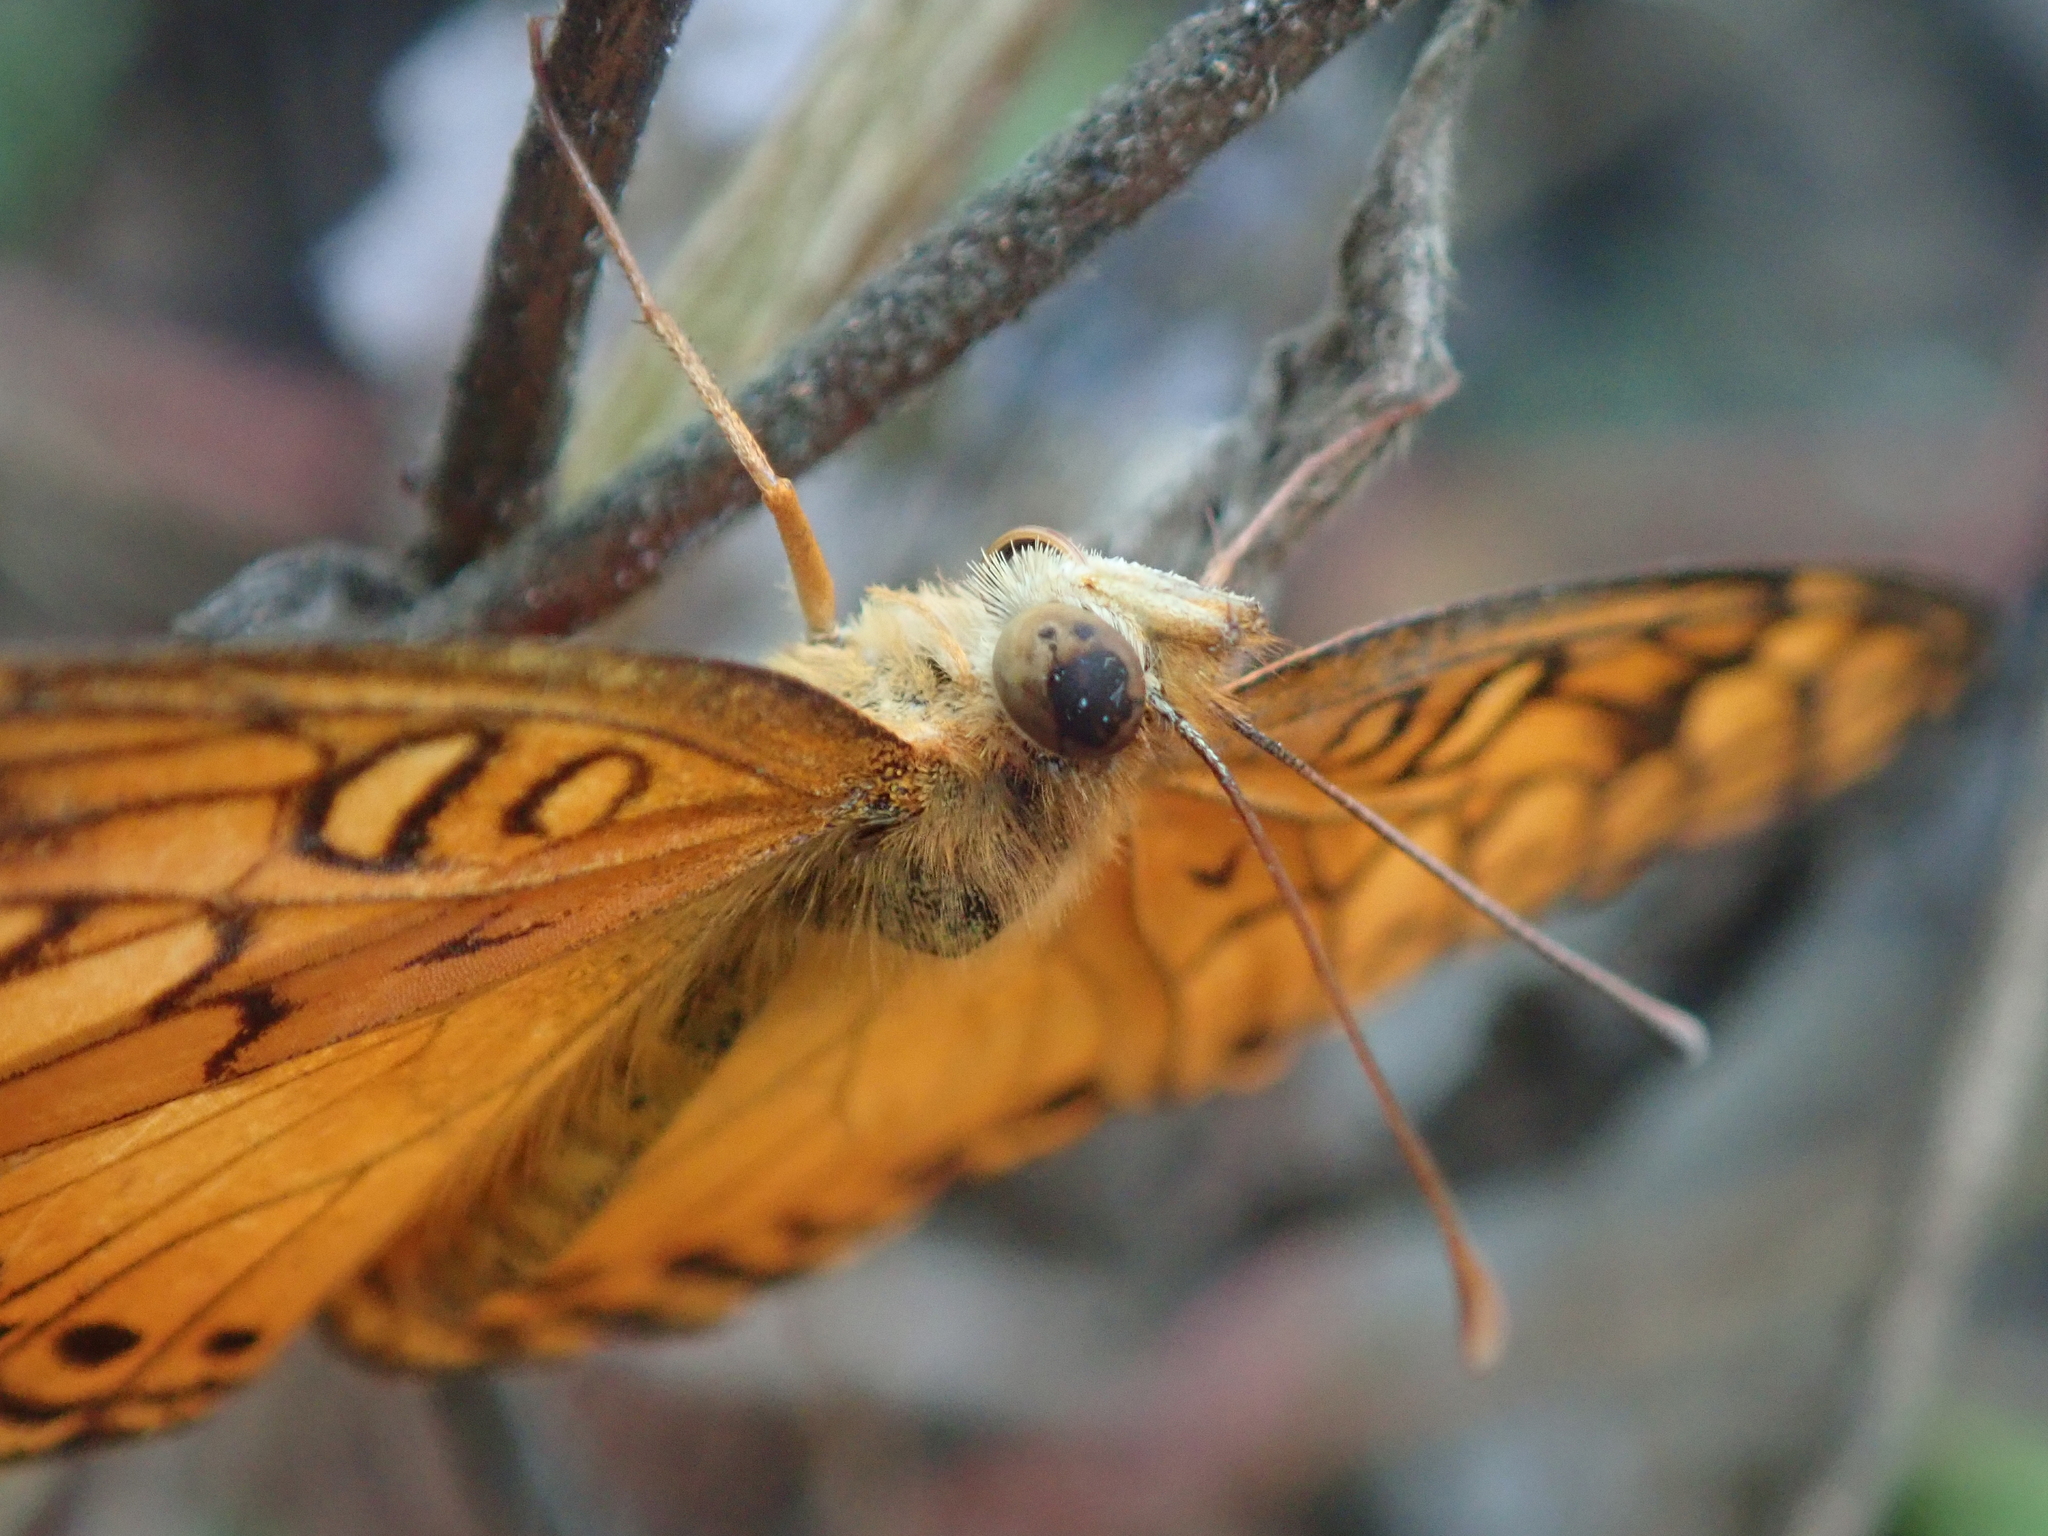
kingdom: Animalia
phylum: Arthropoda
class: Insecta
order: Lepidoptera
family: Nymphalidae
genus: Euptoieta
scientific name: Euptoieta hegesia
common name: Mexican fritillary
